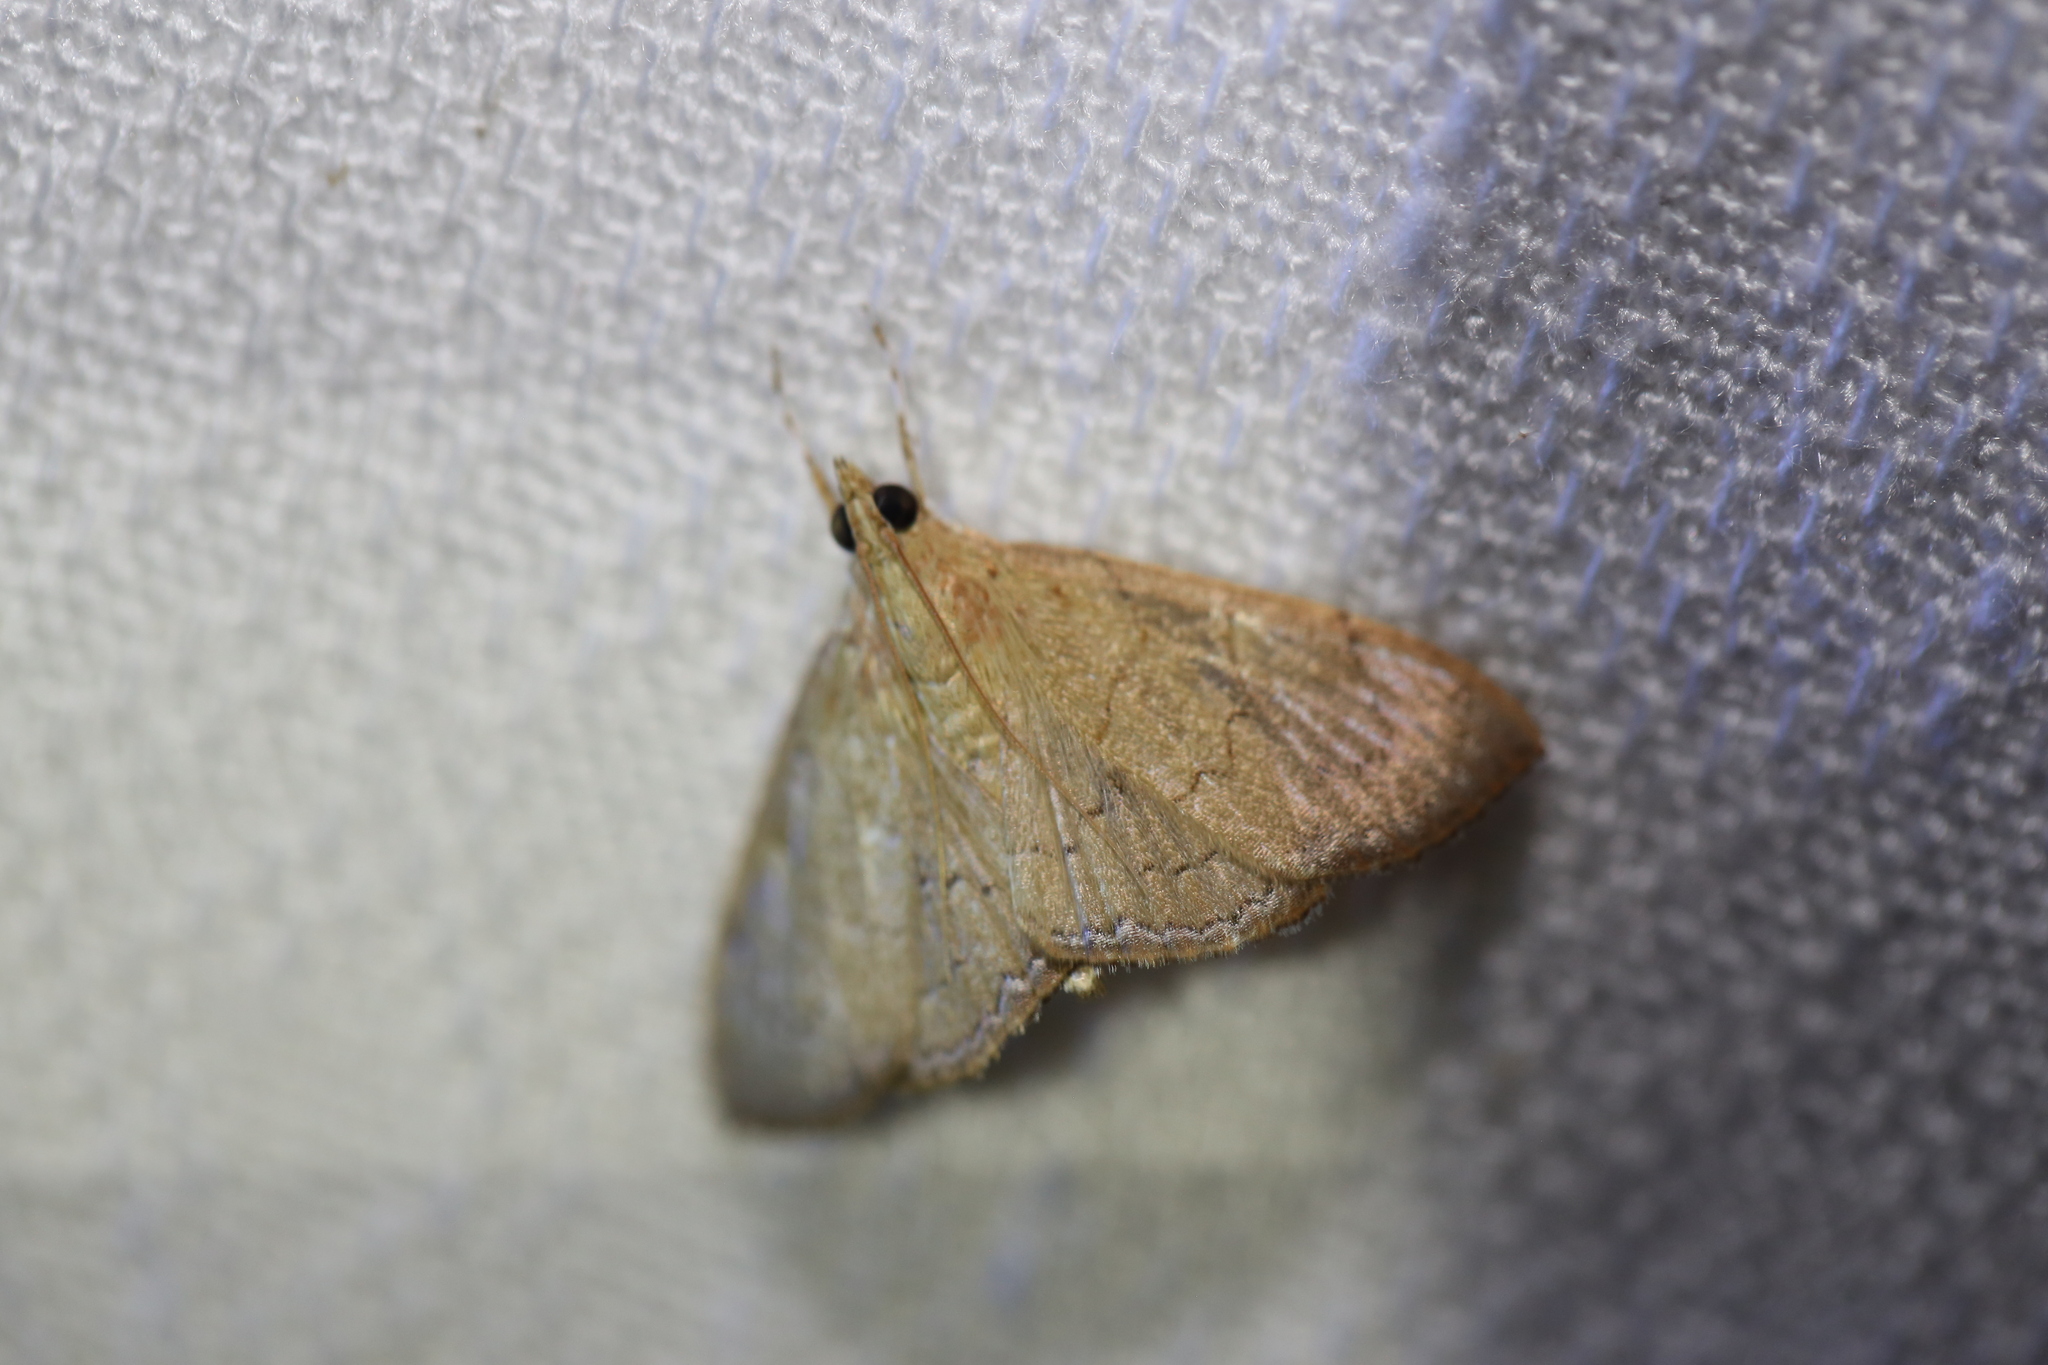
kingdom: Animalia
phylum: Arthropoda
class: Insecta
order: Lepidoptera
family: Crambidae
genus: Hyalobathra
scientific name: Hyalobathra crenulata
